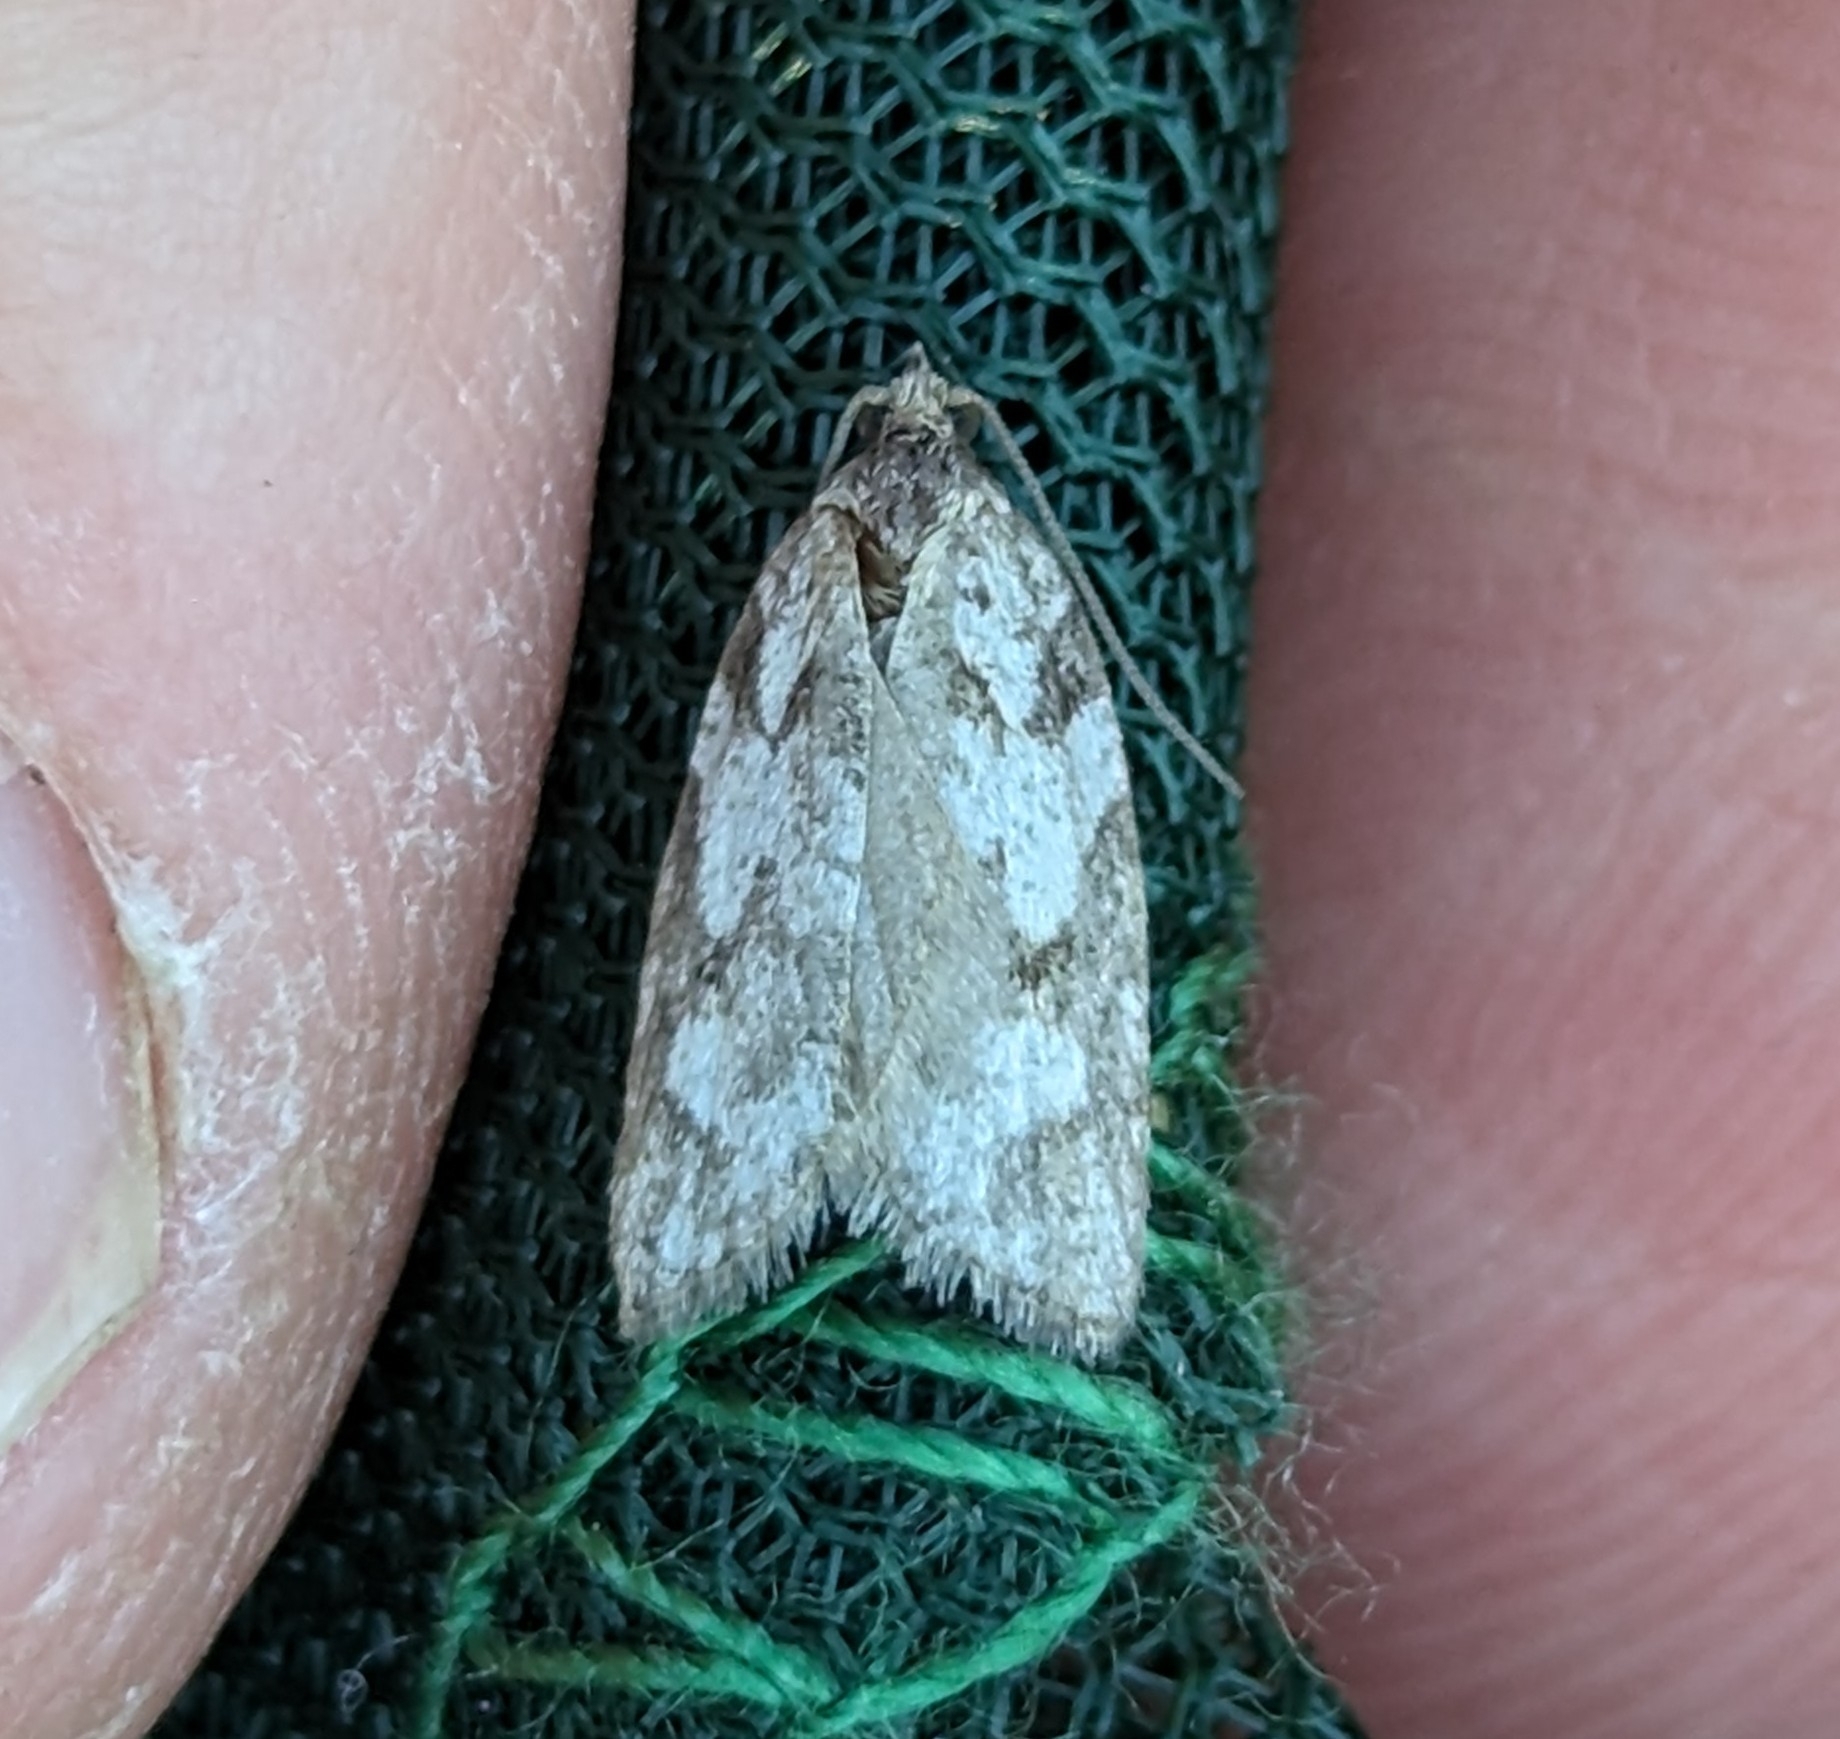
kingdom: Animalia
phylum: Arthropoda
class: Insecta
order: Lepidoptera
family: Tortricidae
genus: Acleris
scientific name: Acleris gloveranus
